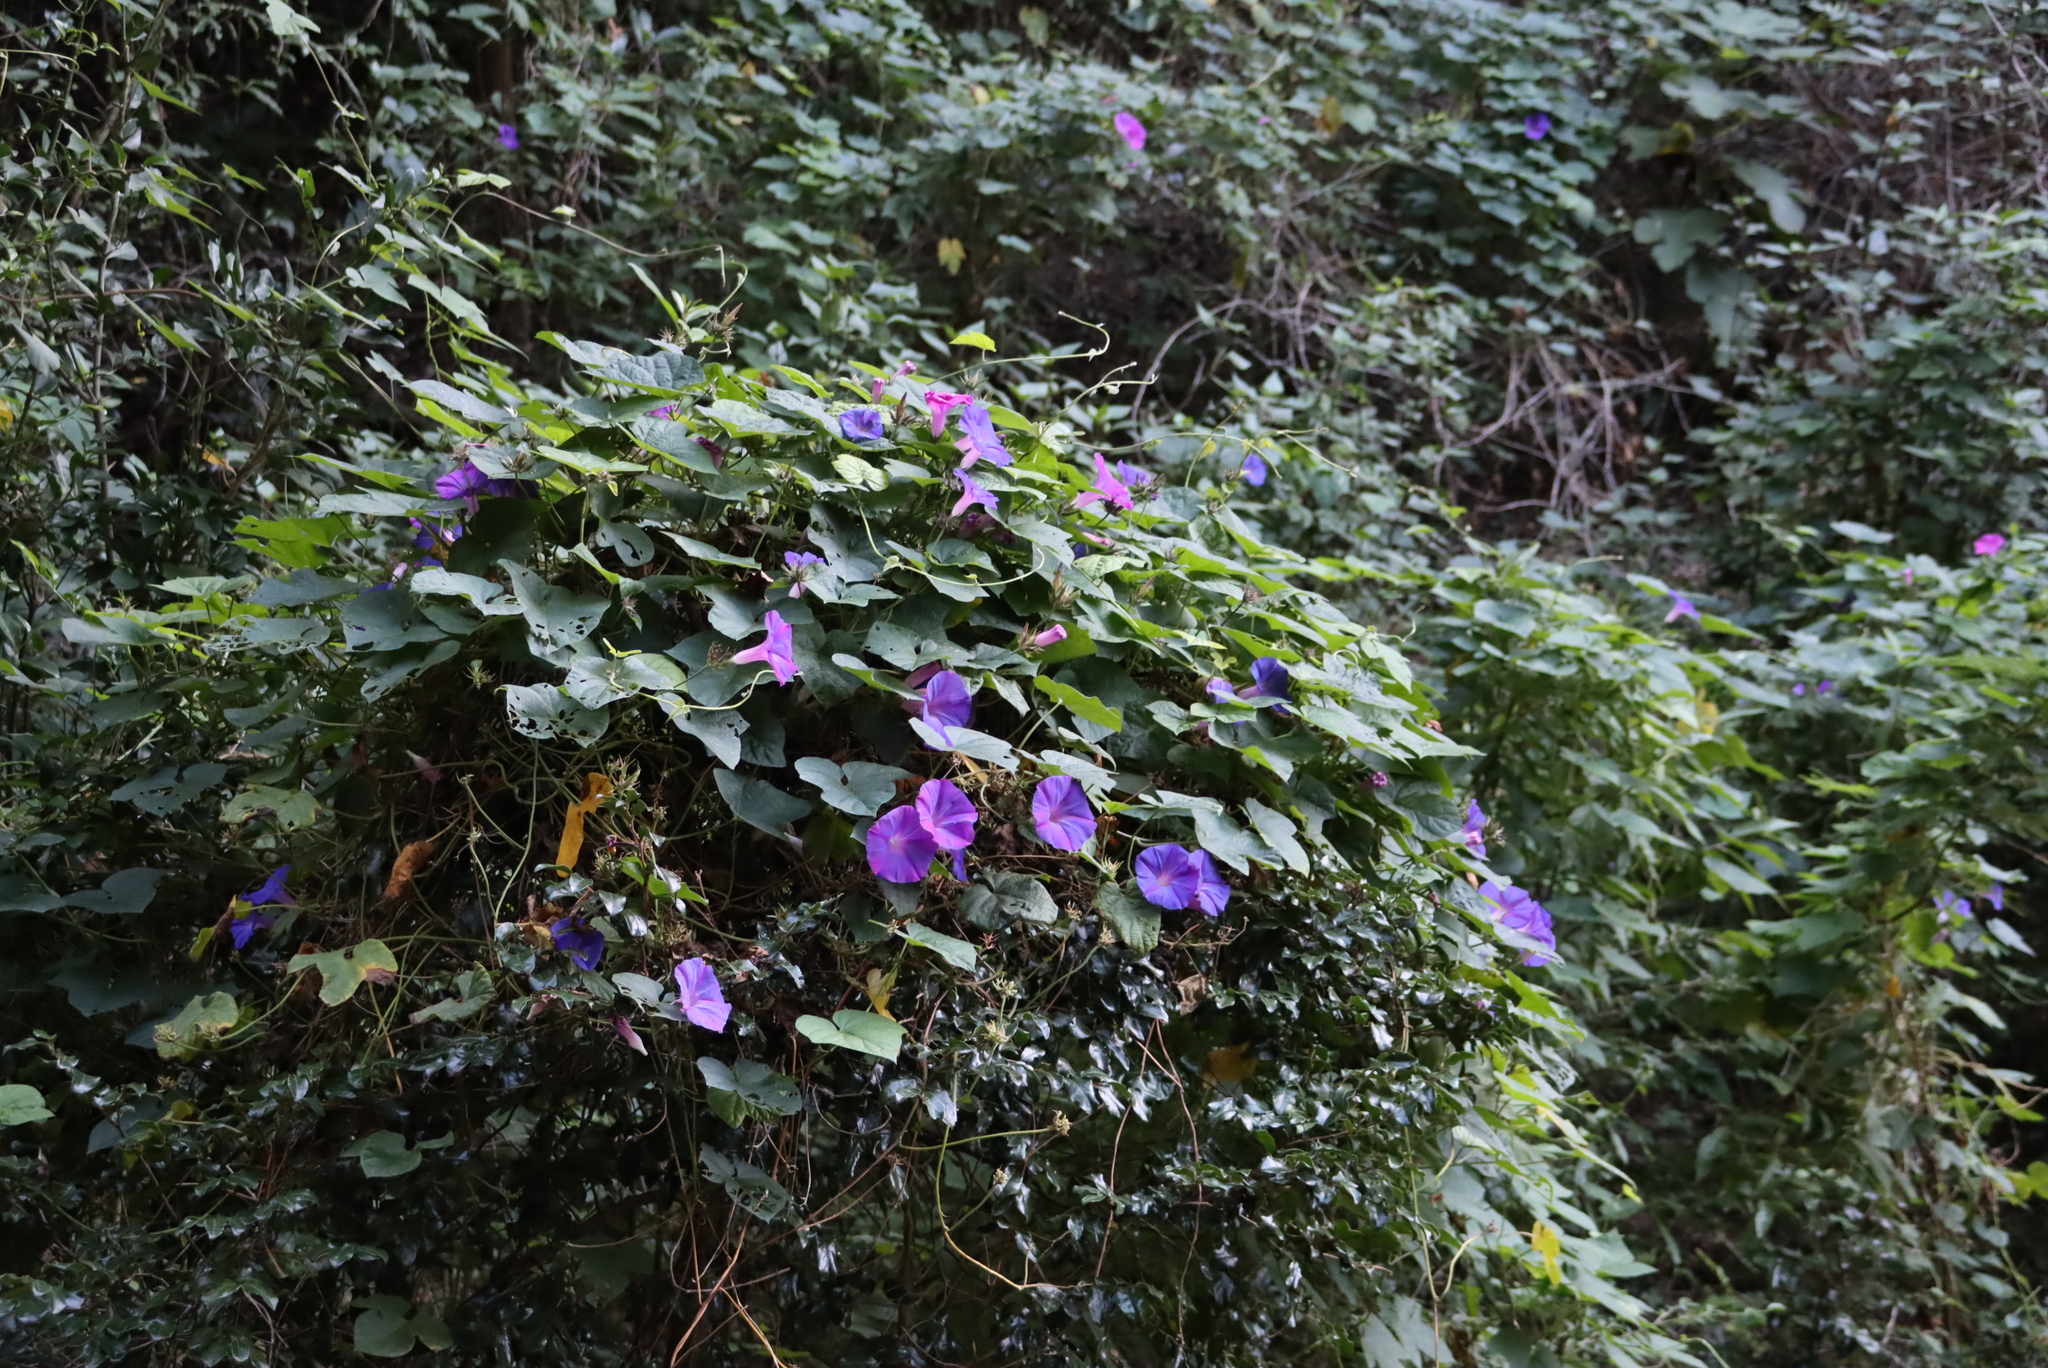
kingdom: Plantae
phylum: Tracheophyta
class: Magnoliopsida
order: Solanales
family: Convolvulaceae
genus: Ipomoea
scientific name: Ipomoea indica
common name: Blue dawnflower
